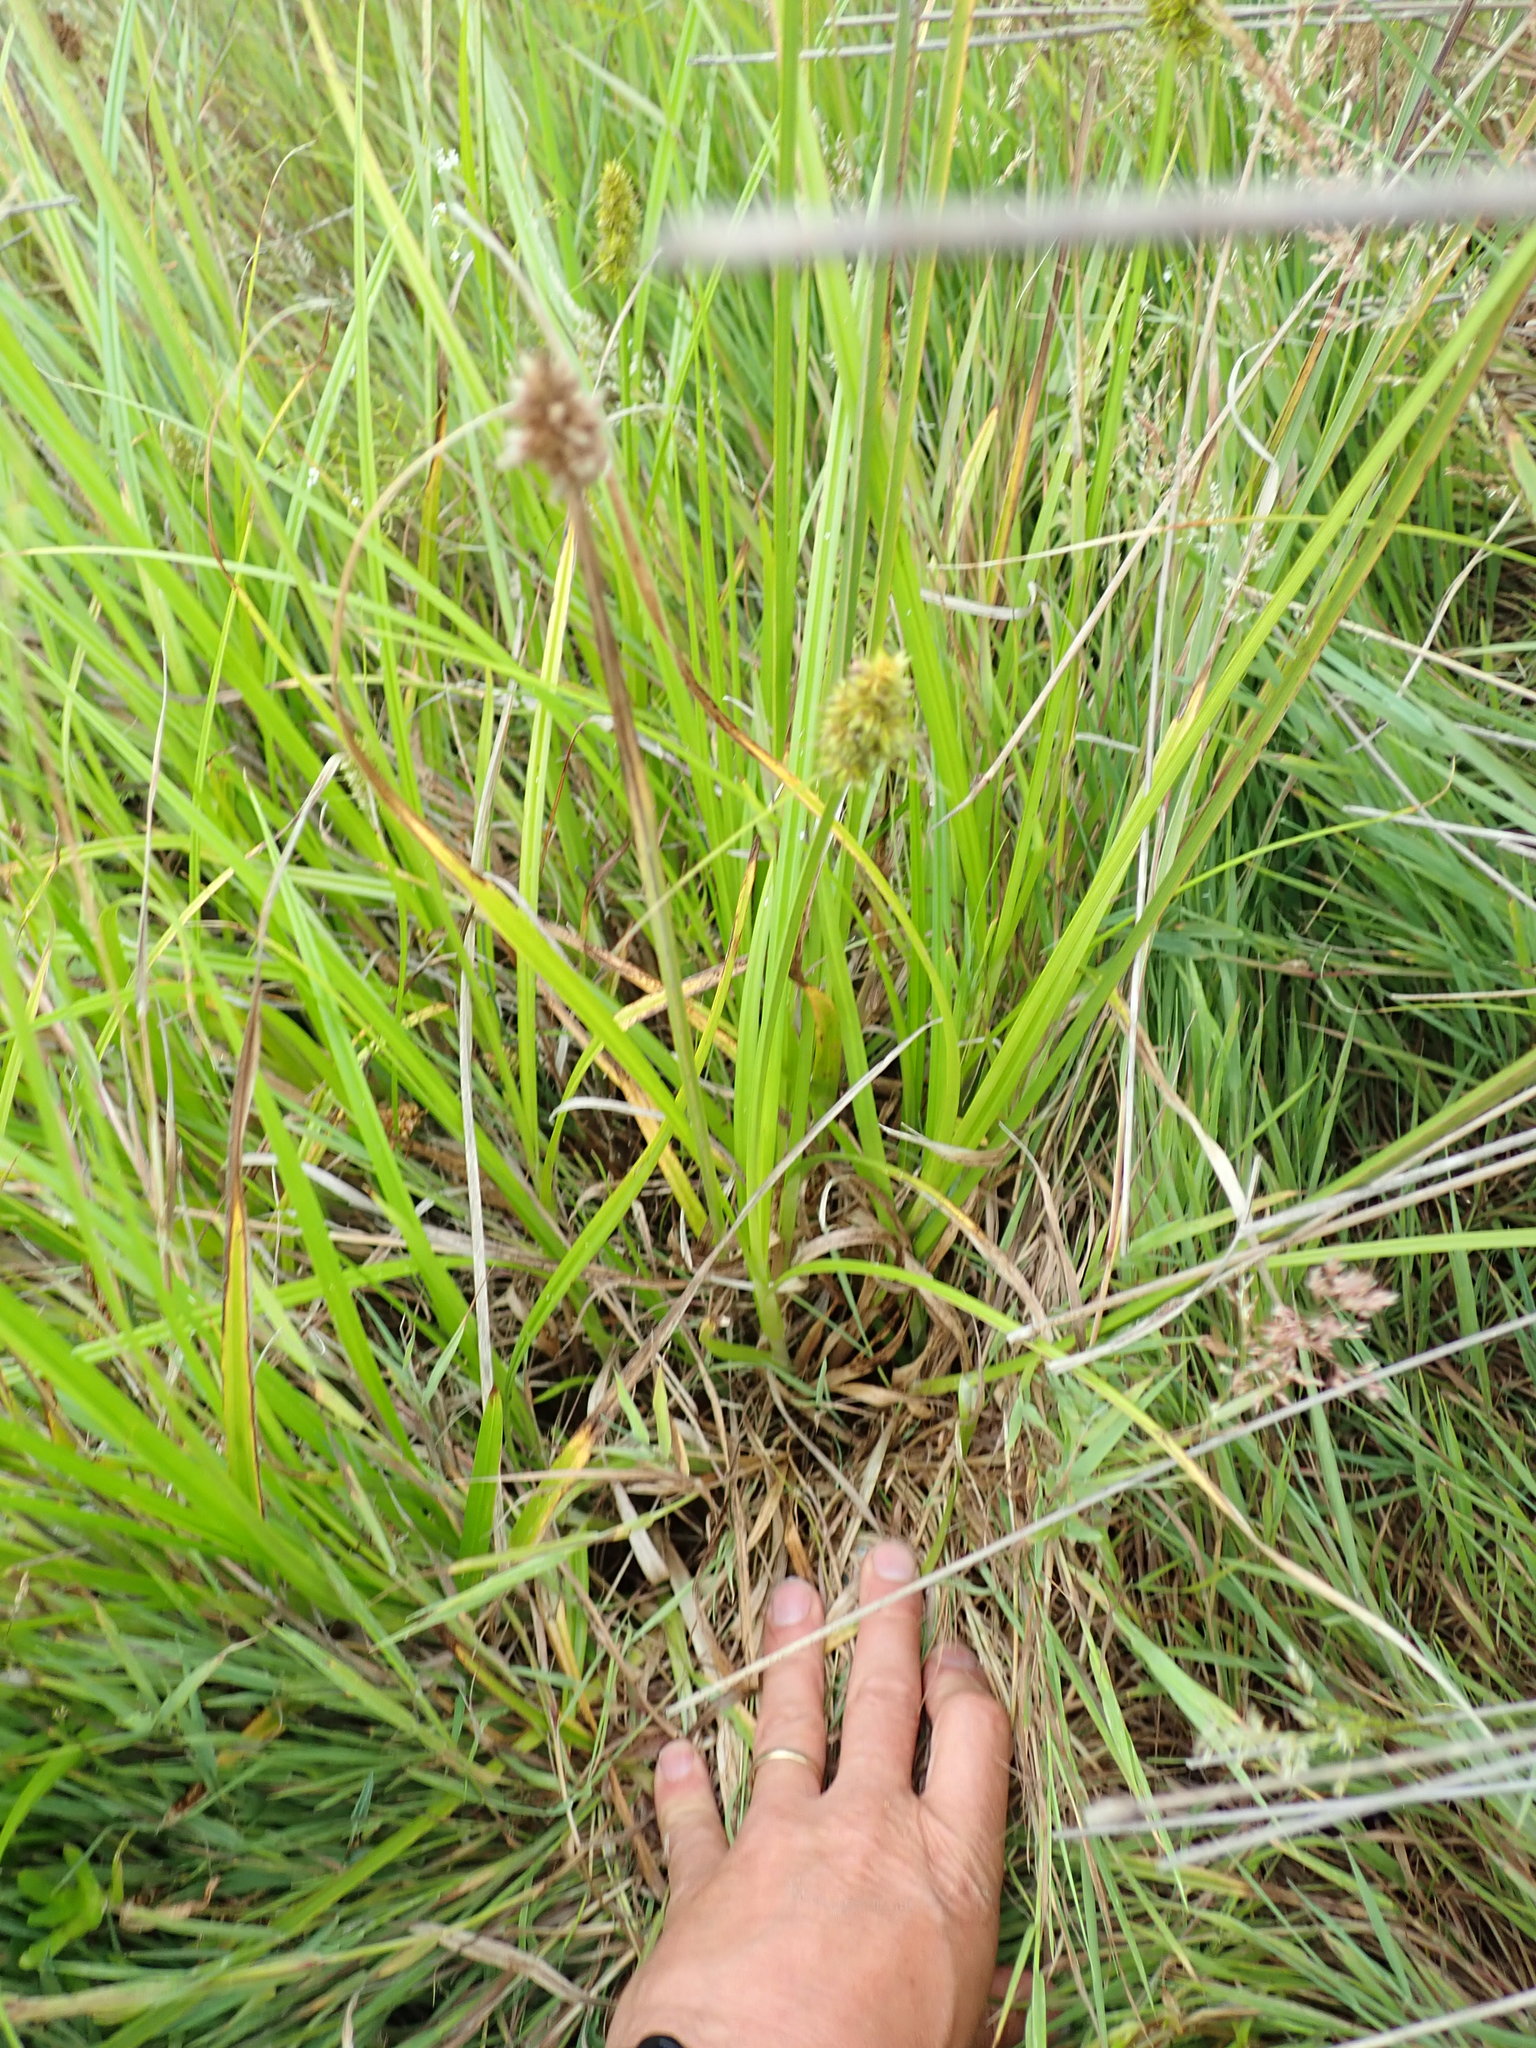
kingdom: Plantae
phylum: Tracheophyta
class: Liliopsida
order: Poales
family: Cyperaceae
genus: Carex
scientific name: Carex otrubae
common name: False fox-sedge
